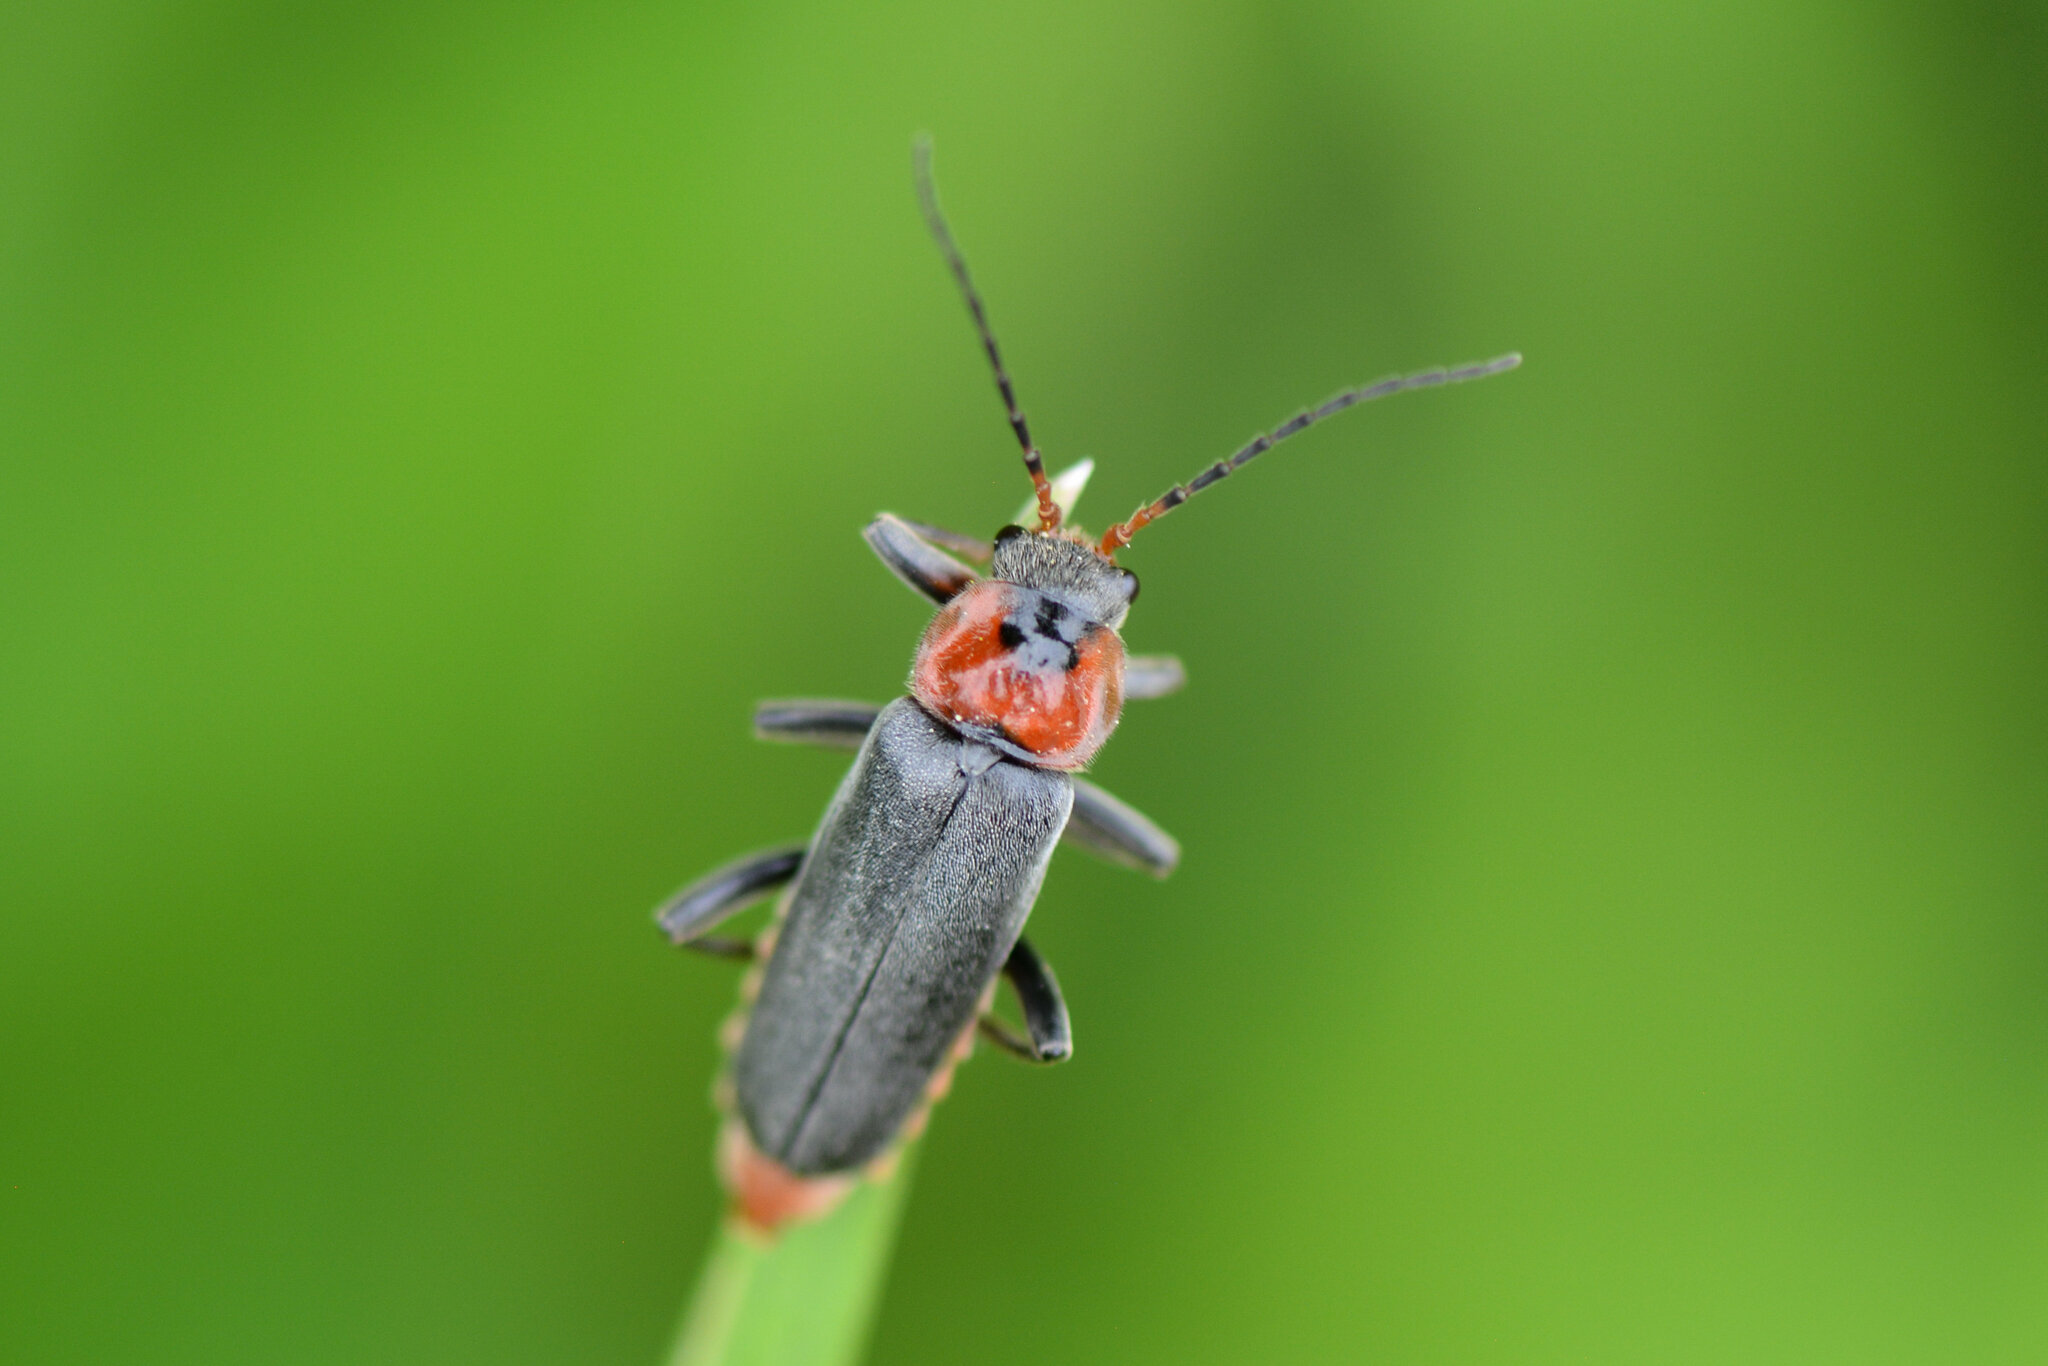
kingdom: Animalia
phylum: Arthropoda
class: Insecta
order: Coleoptera
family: Cantharidae
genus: Cantharis
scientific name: Cantharis fusca
